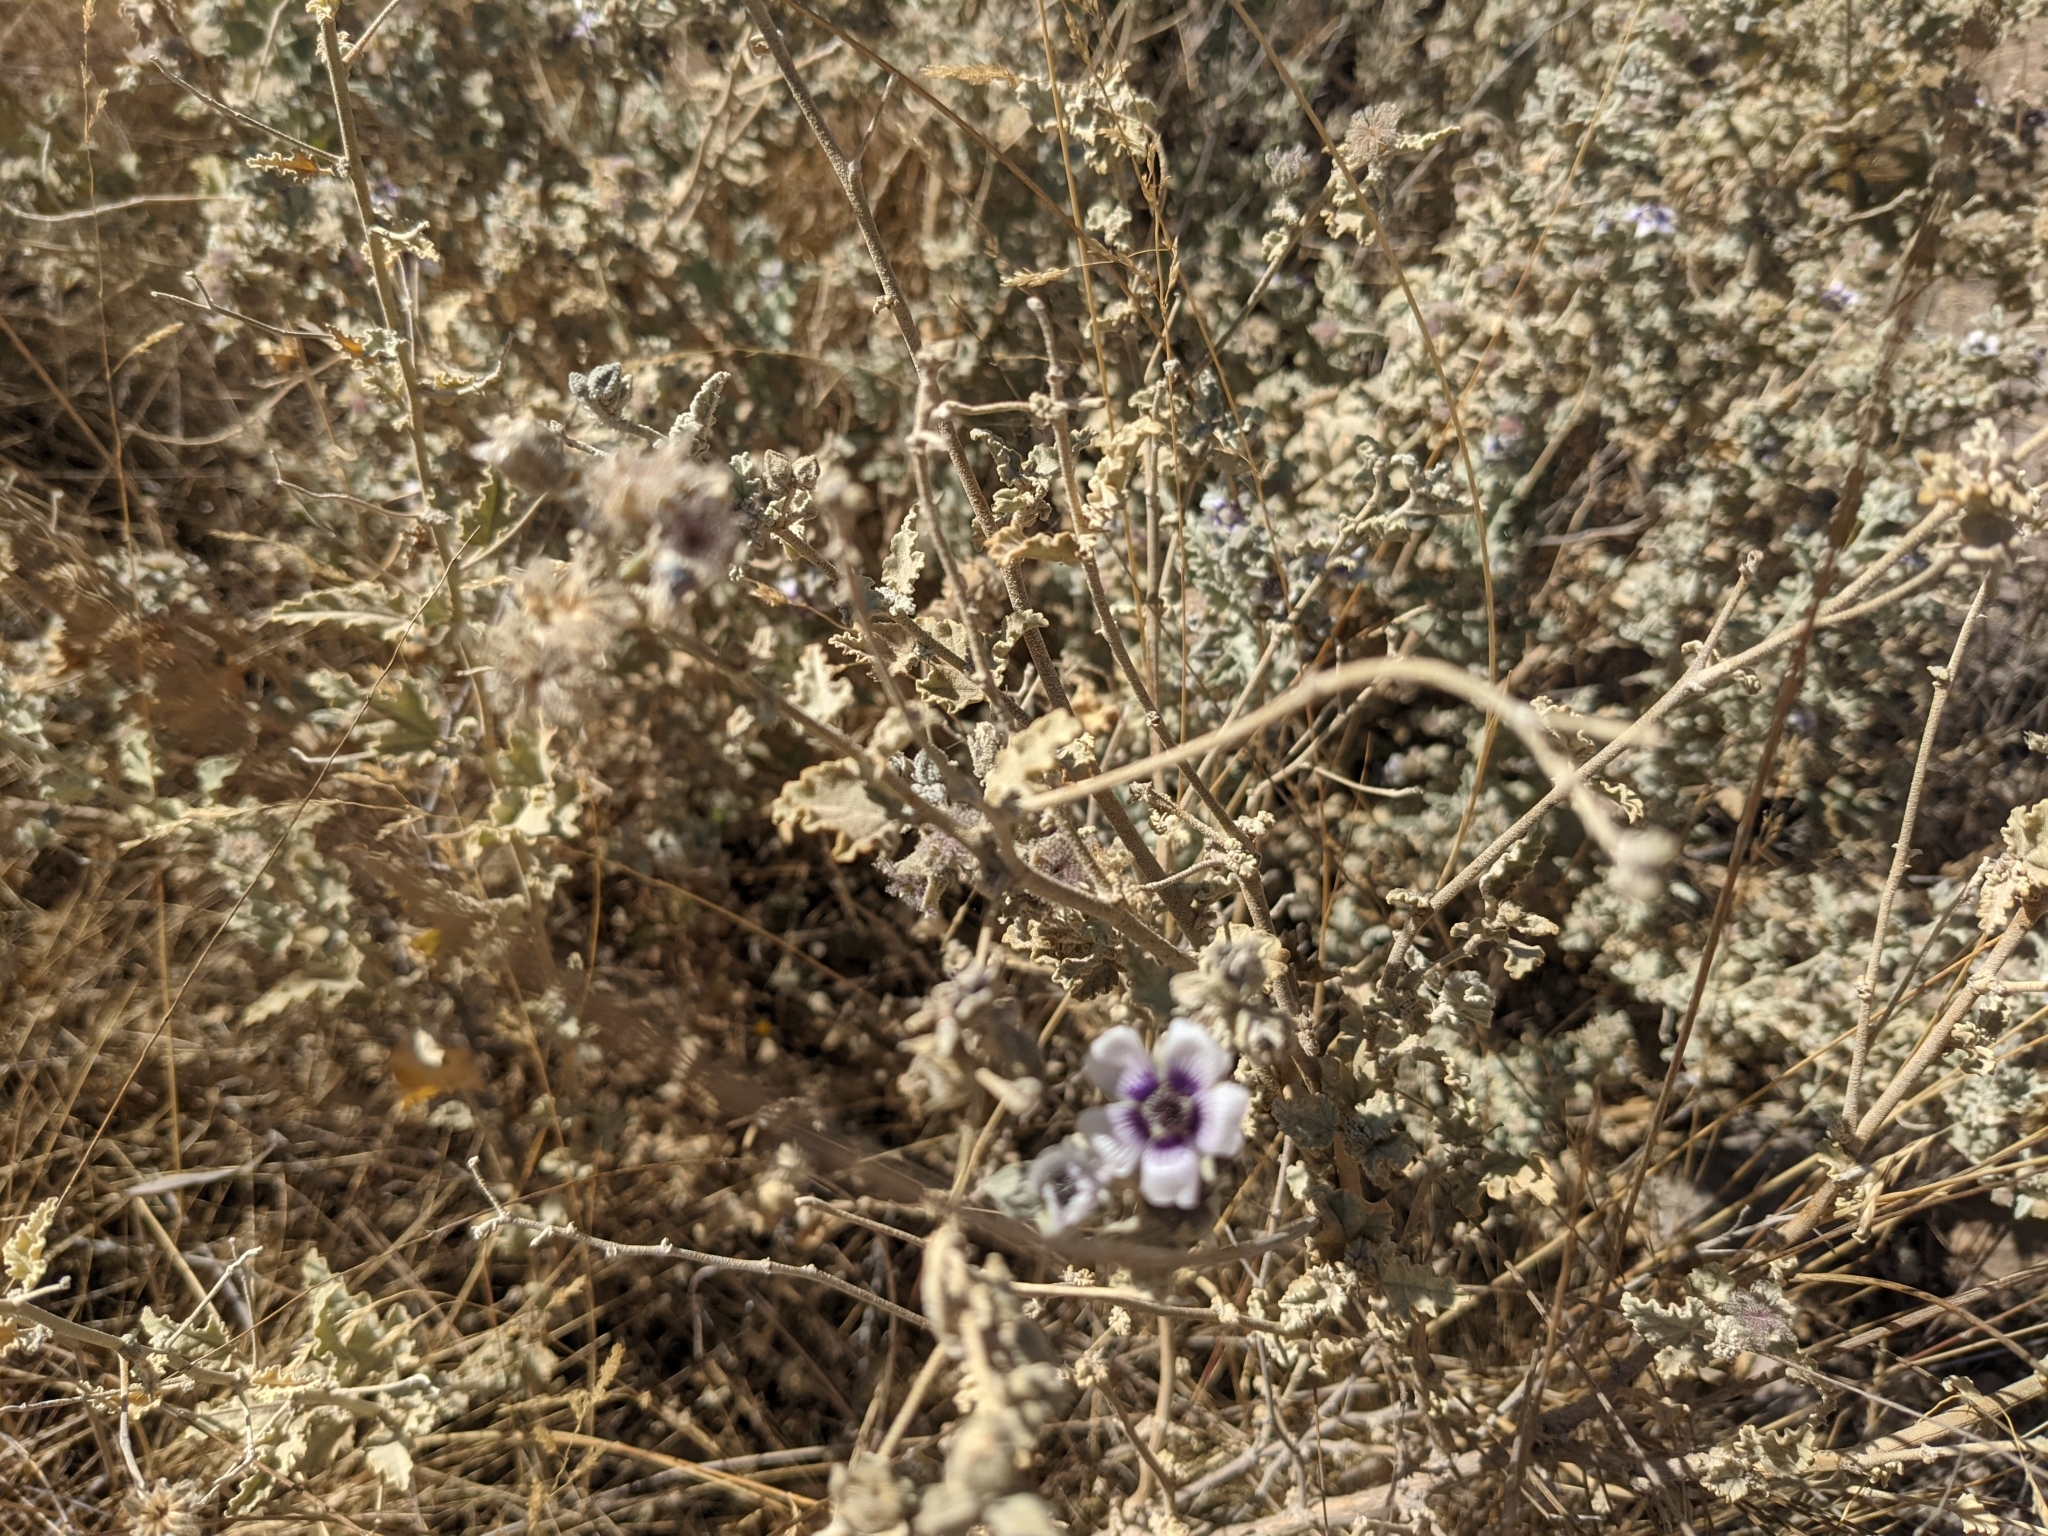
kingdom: Plantae
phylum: Tracheophyta
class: Magnoliopsida
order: Malvales
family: Malvaceae
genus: Tarasa
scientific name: Tarasa operculata
